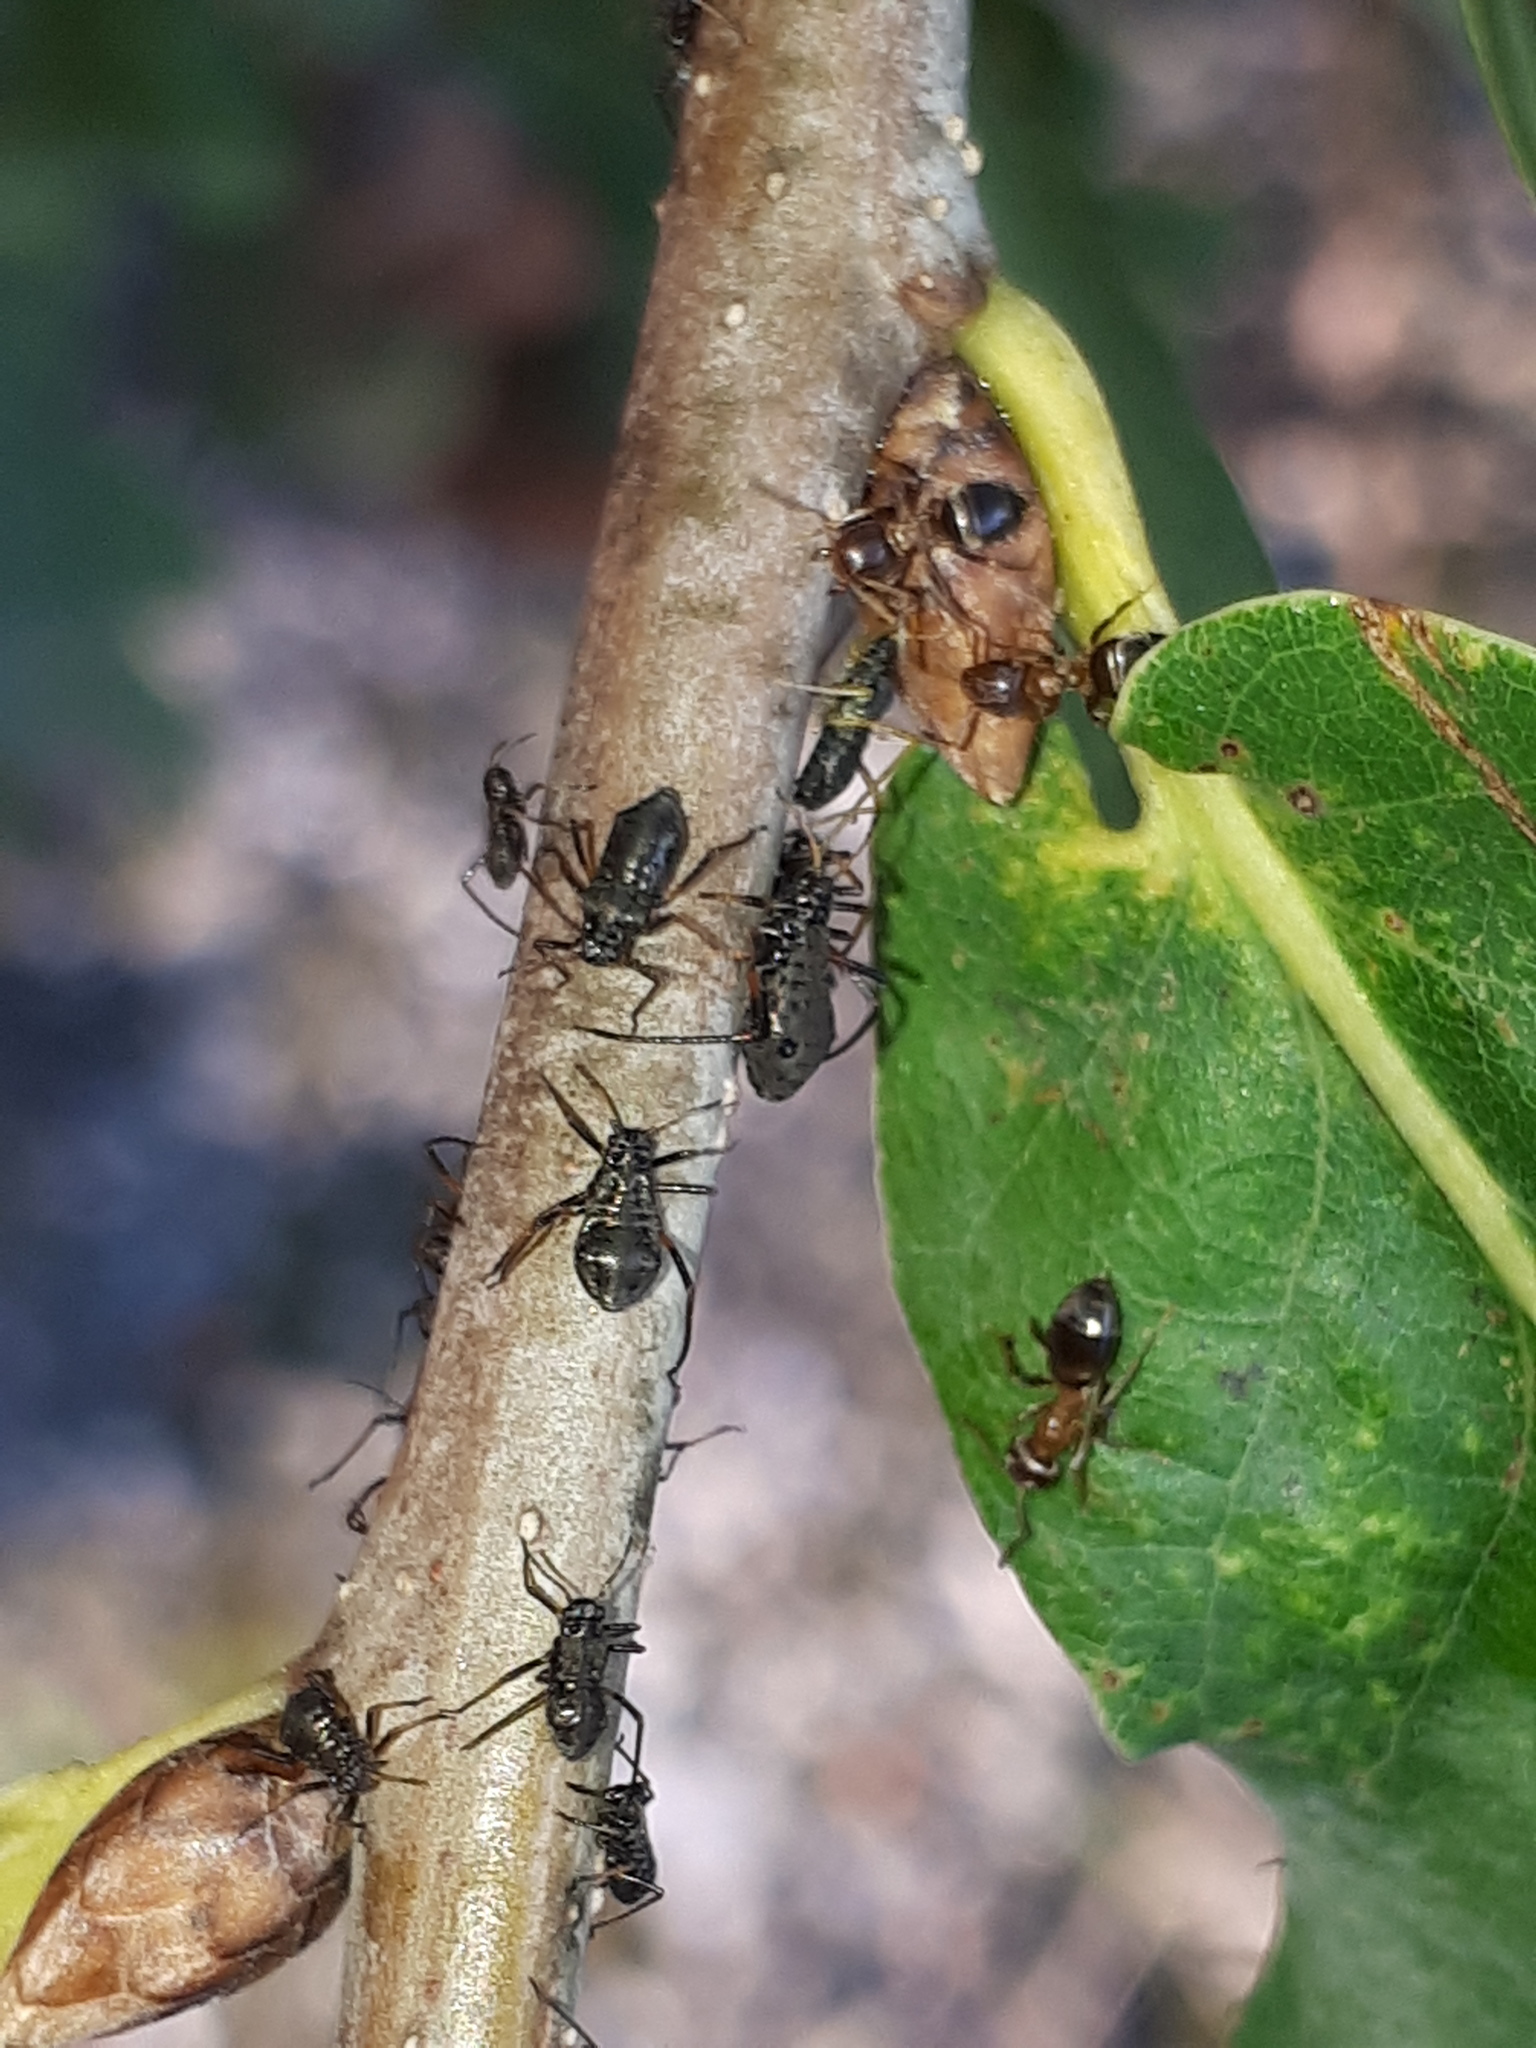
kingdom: Animalia
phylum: Arthropoda
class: Insecta
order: Hemiptera
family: Aphididae
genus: Lachnus
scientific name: Lachnus roboris
